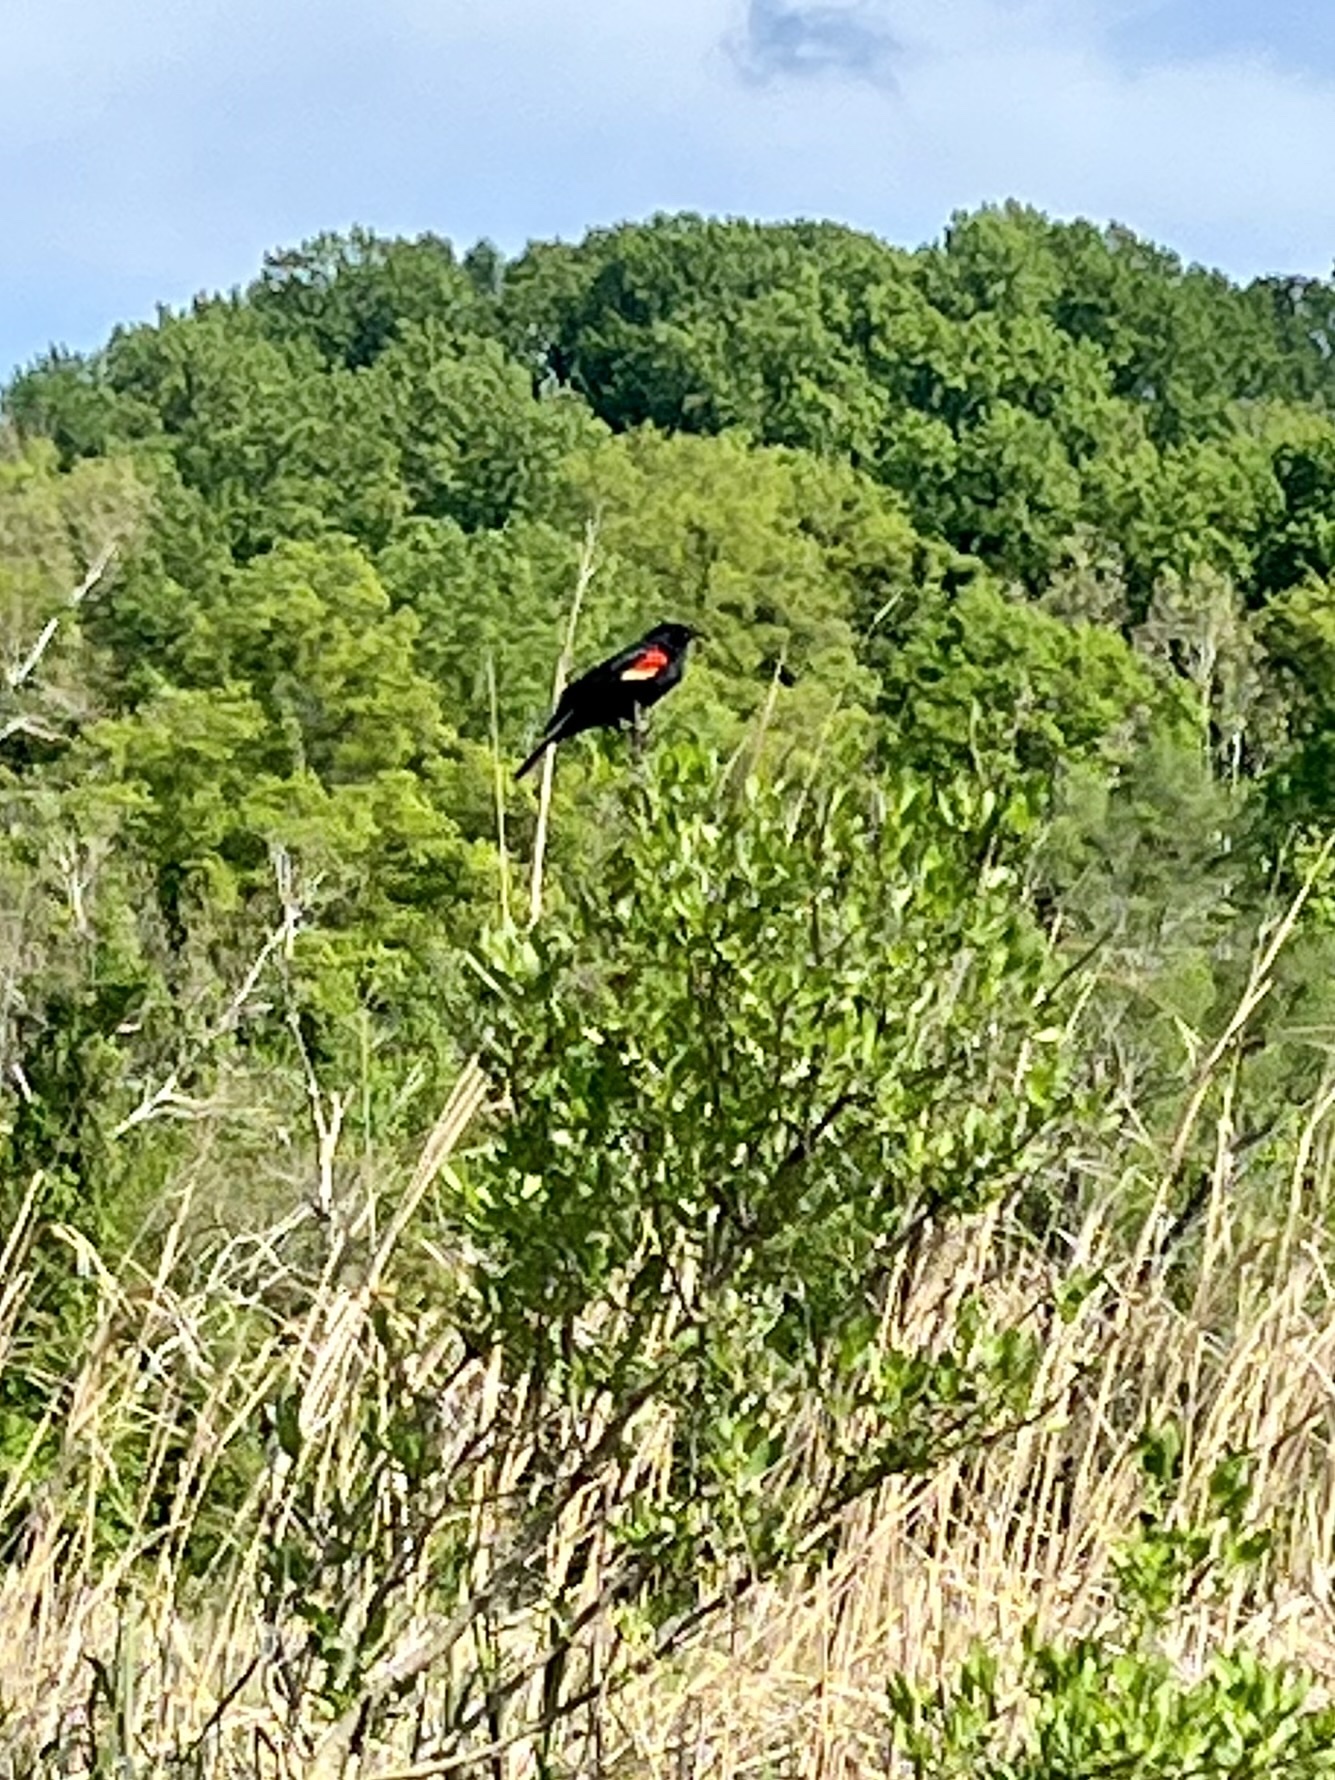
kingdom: Animalia
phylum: Chordata
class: Aves
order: Passeriformes
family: Icteridae
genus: Agelaius
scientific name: Agelaius phoeniceus
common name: Red-winged blackbird
